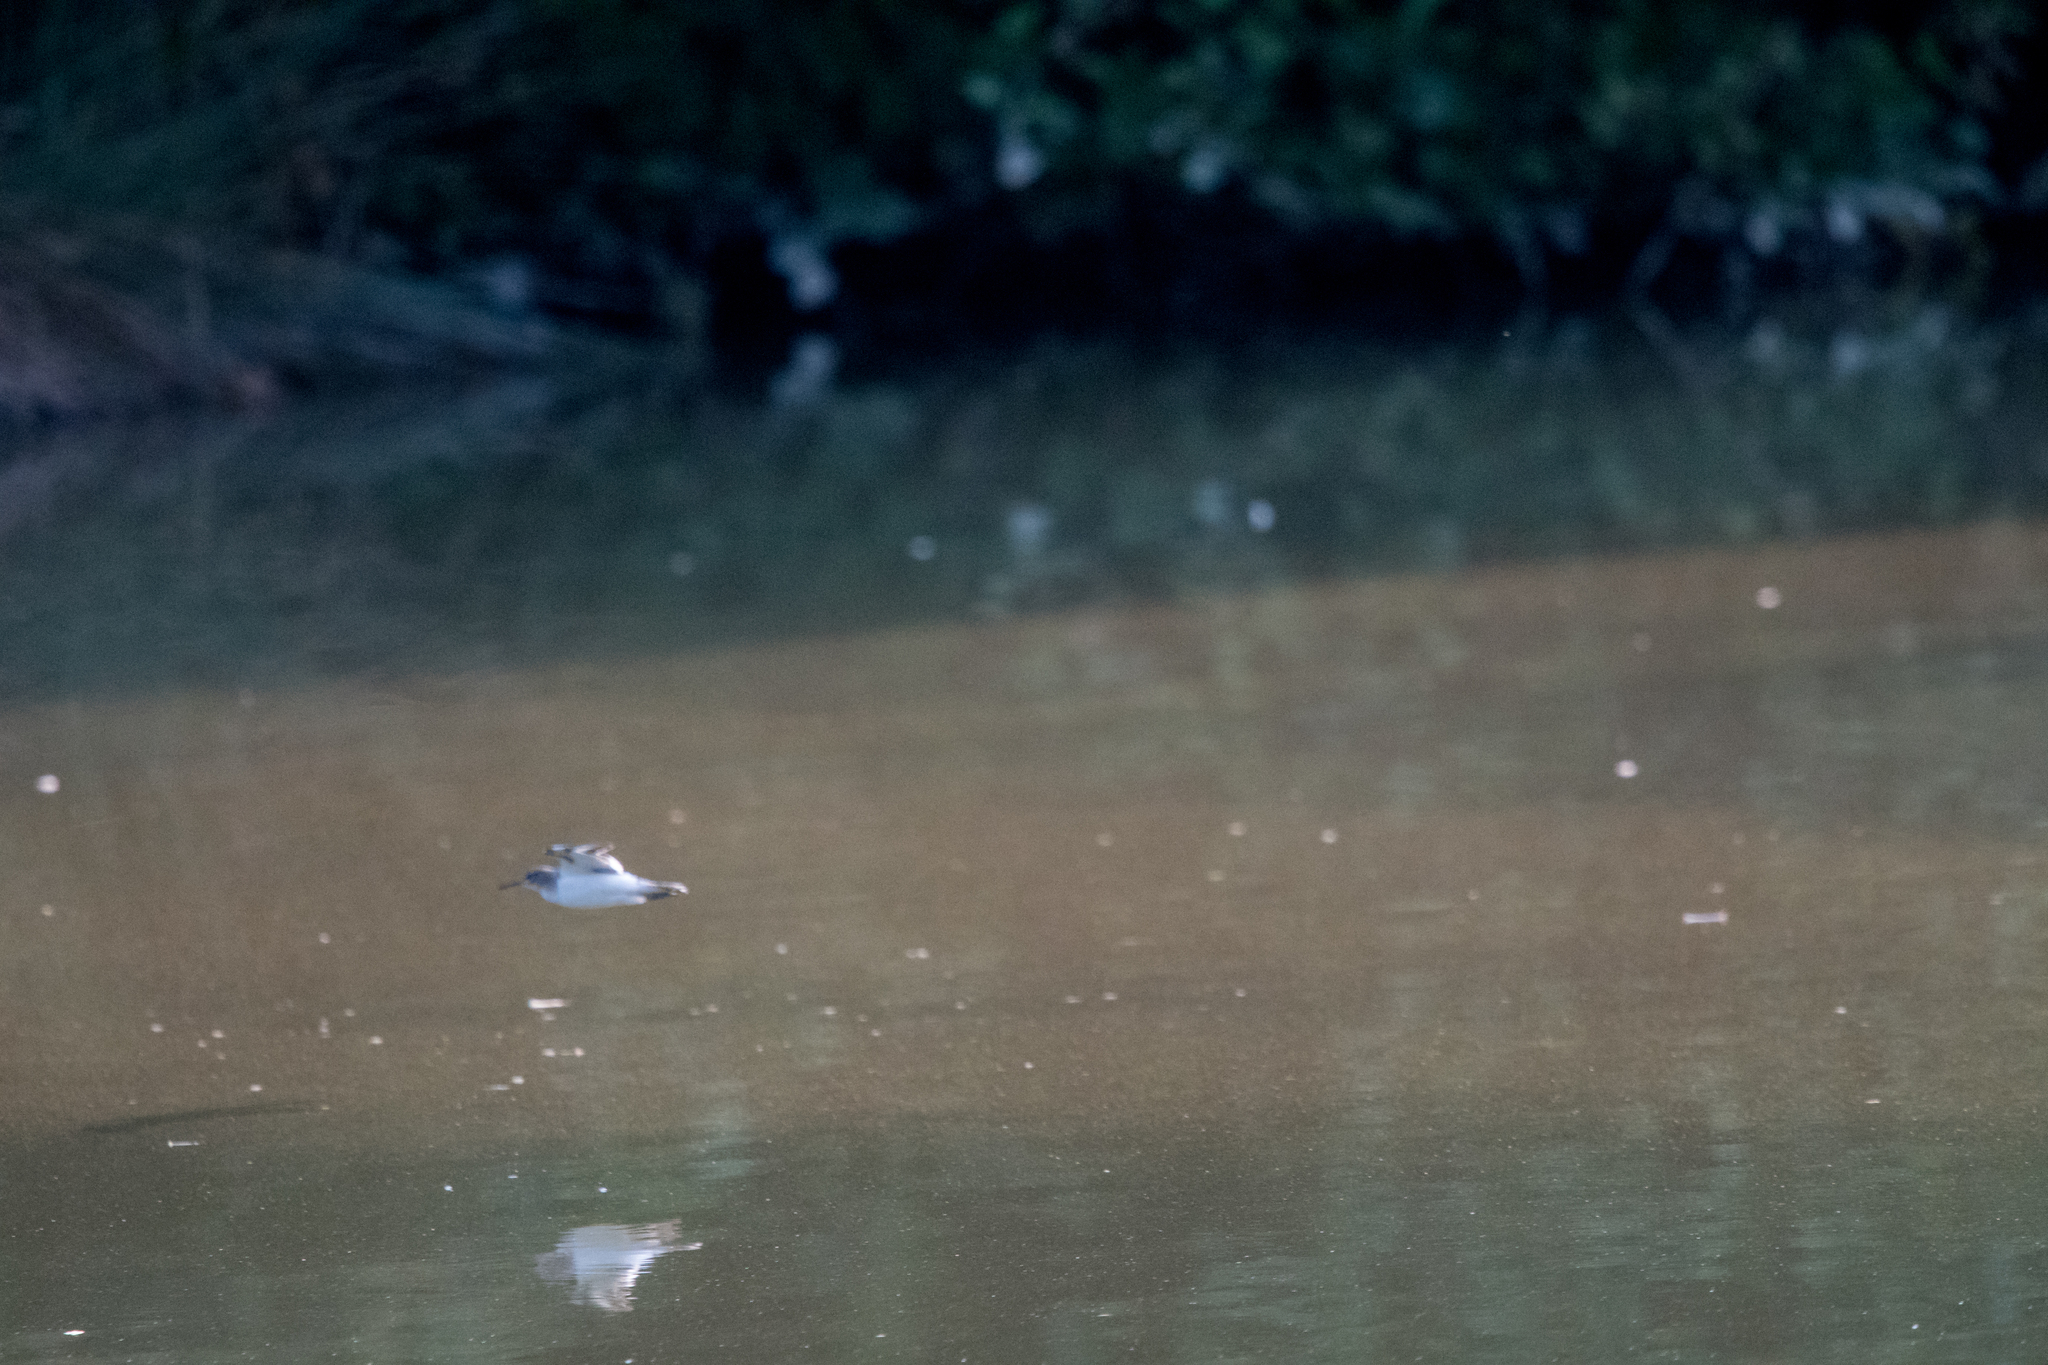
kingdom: Animalia
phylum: Chordata
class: Aves
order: Charadriiformes
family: Scolopacidae
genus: Actitis
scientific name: Actitis hypoleucos
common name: Common sandpiper
